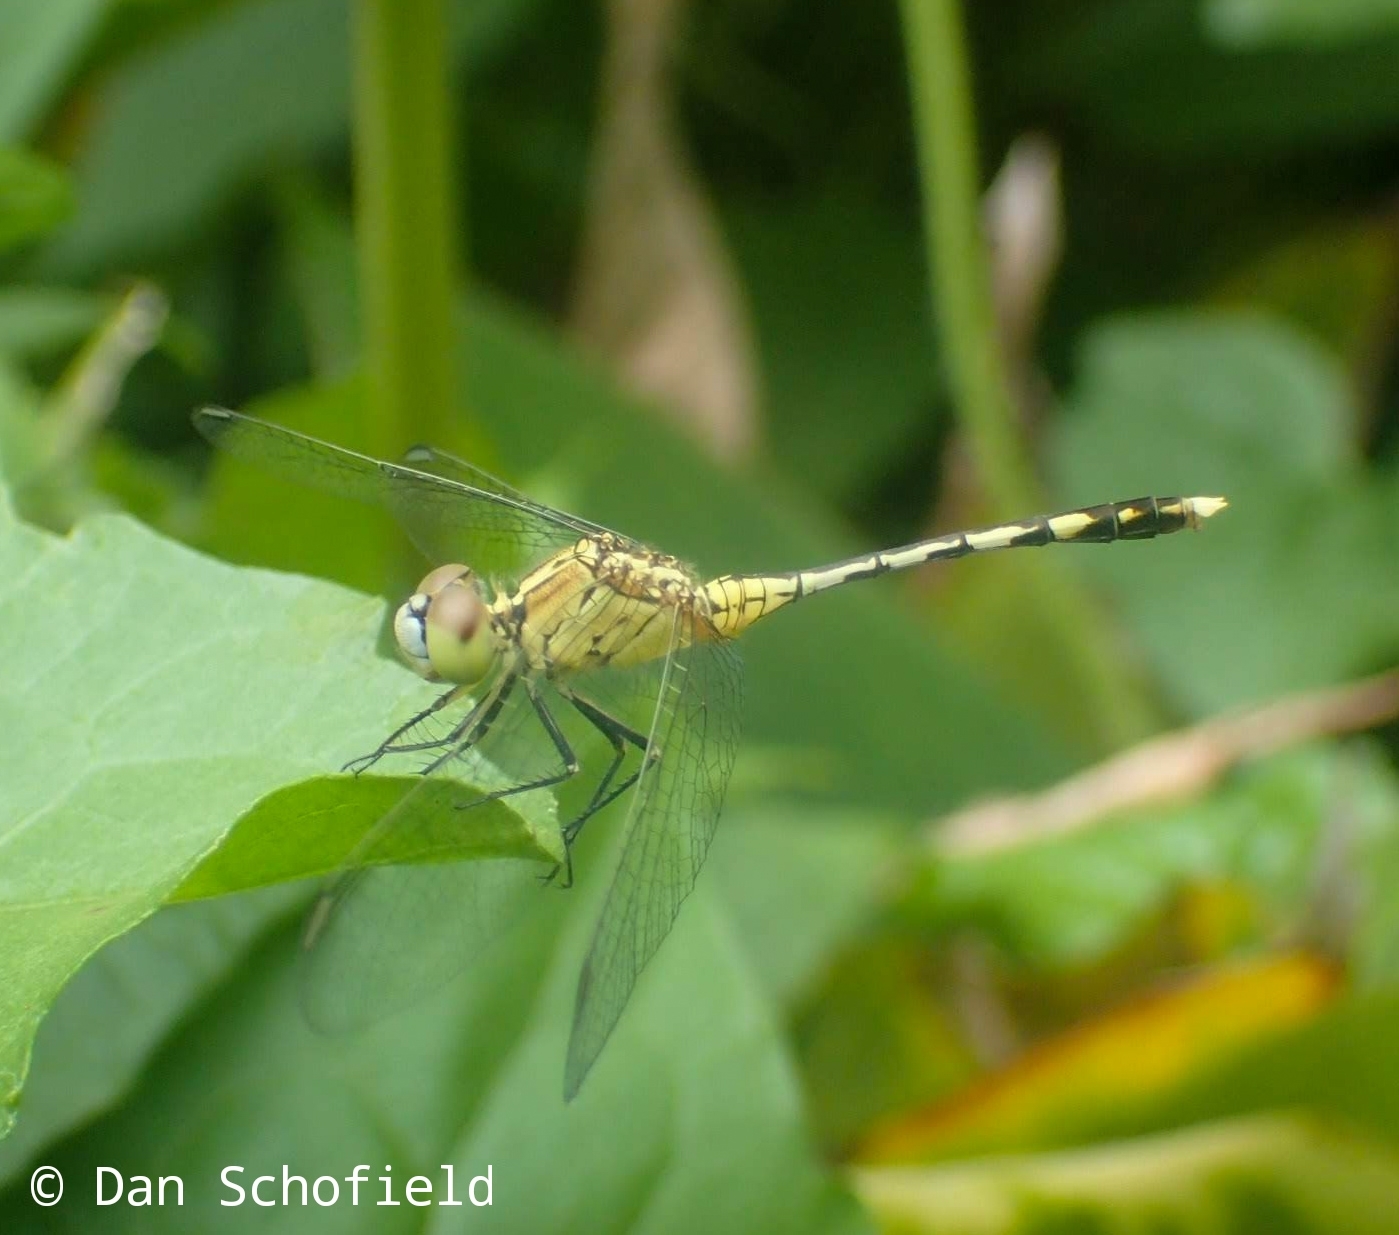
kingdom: Animalia
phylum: Arthropoda
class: Insecta
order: Odonata
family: Libellulidae
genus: Diplacodes
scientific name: Diplacodes trivialis
